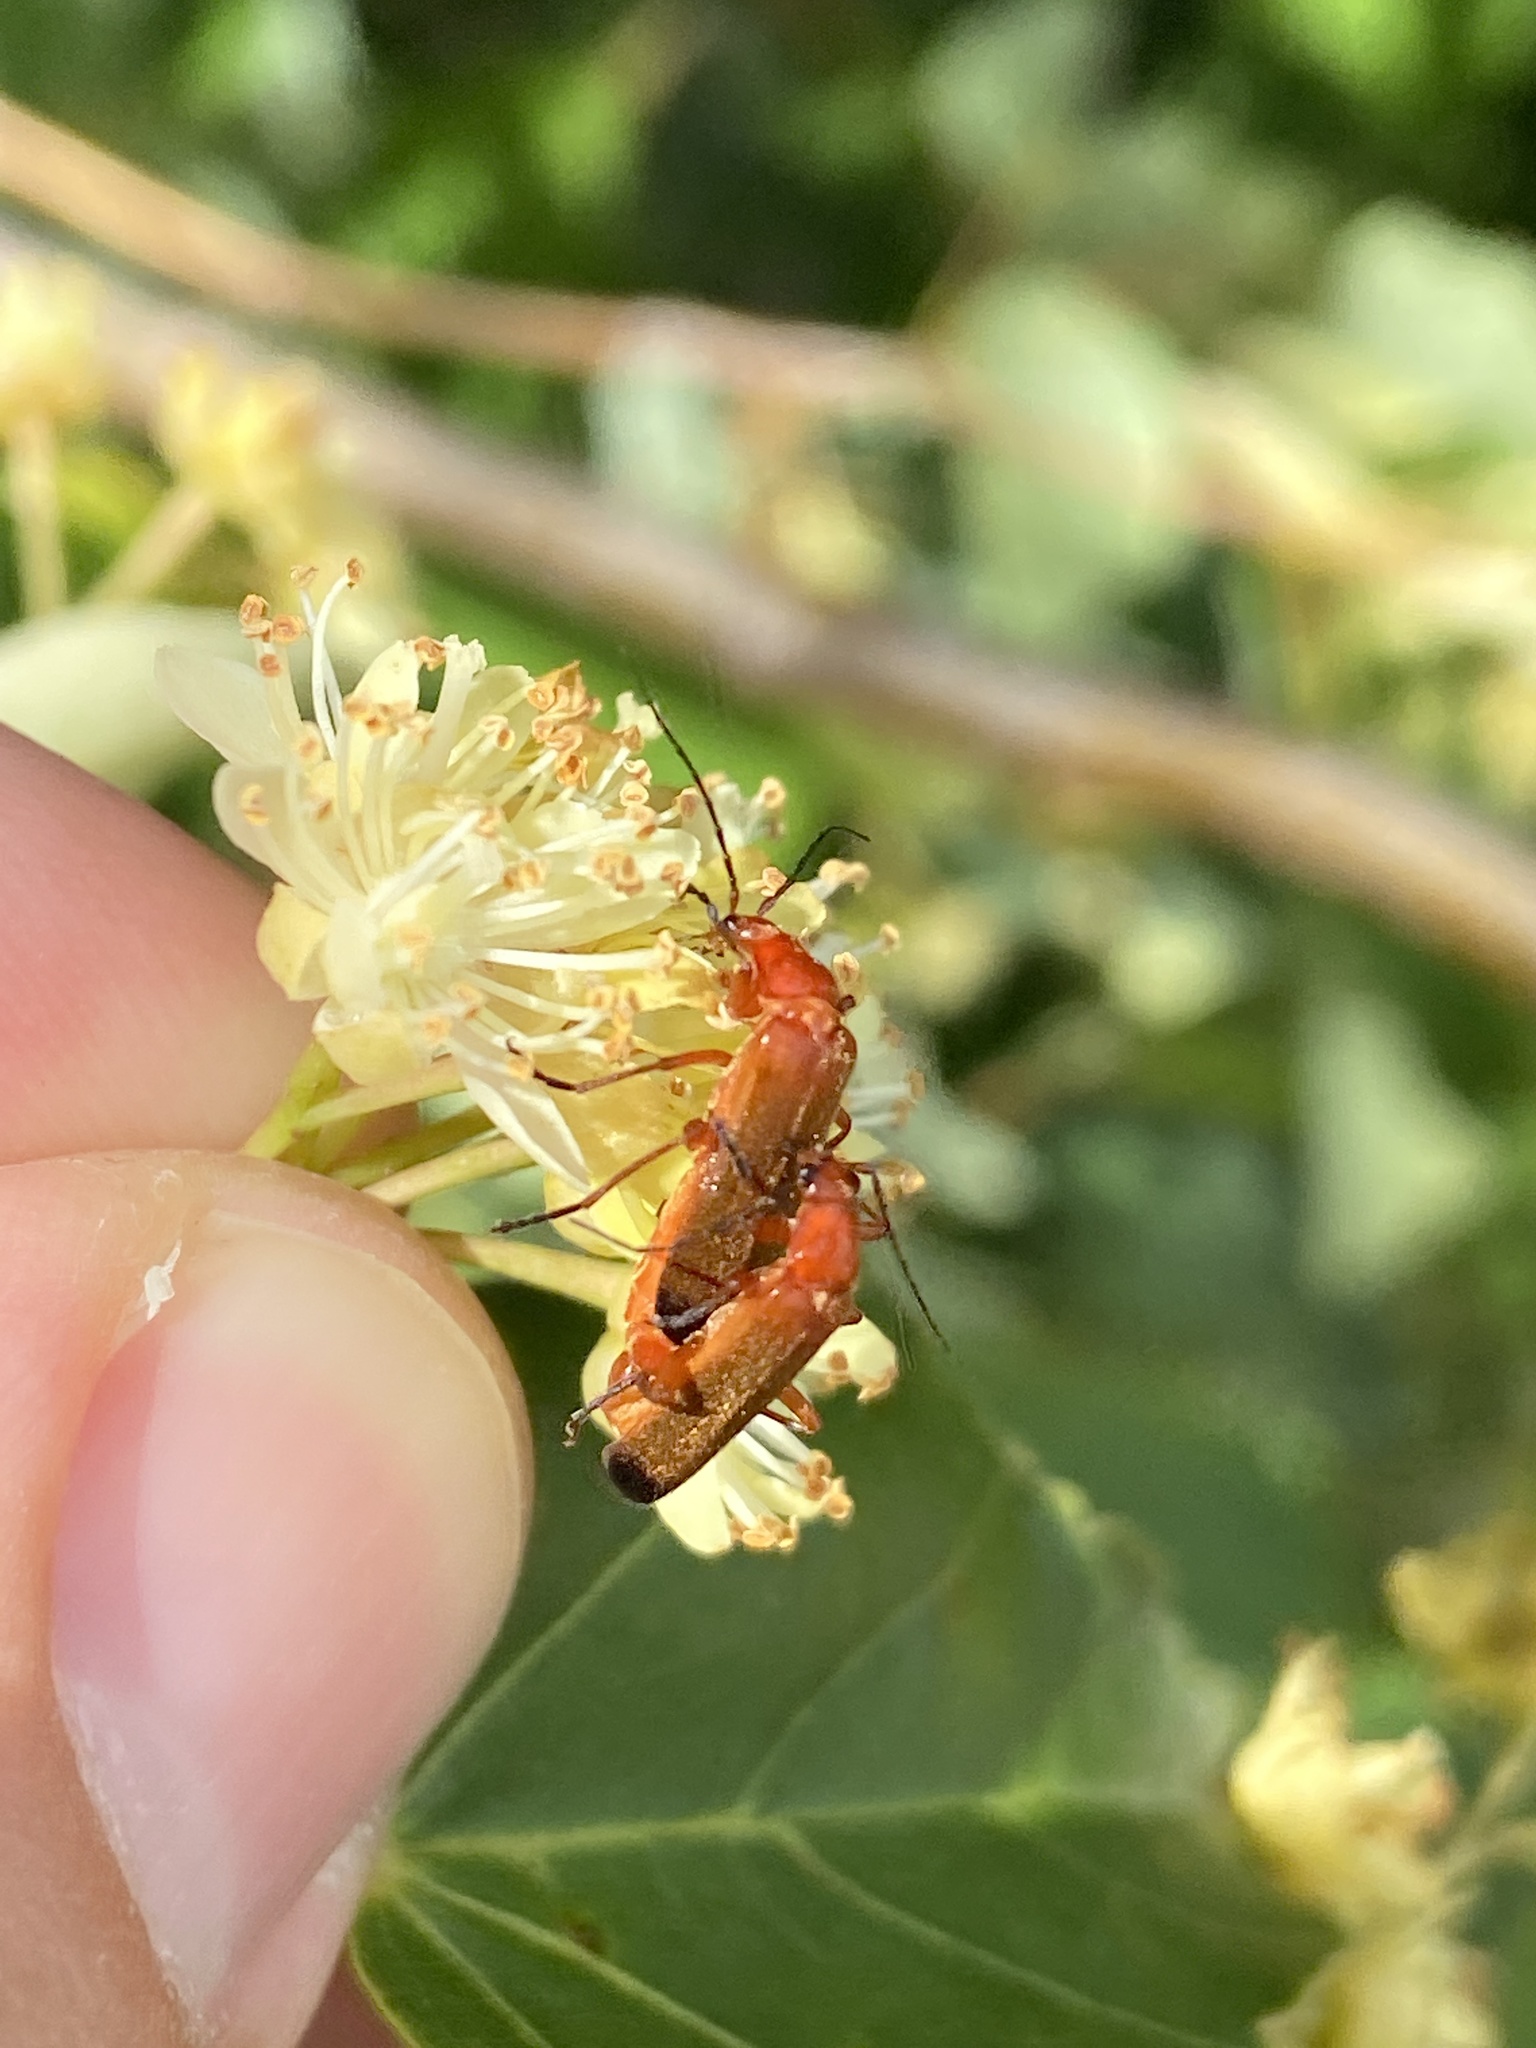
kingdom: Animalia
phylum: Arthropoda
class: Insecta
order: Coleoptera
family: Cantharidae
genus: Rhagonycha
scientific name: Rhagonycha fulva
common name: Common red soldier beetle
